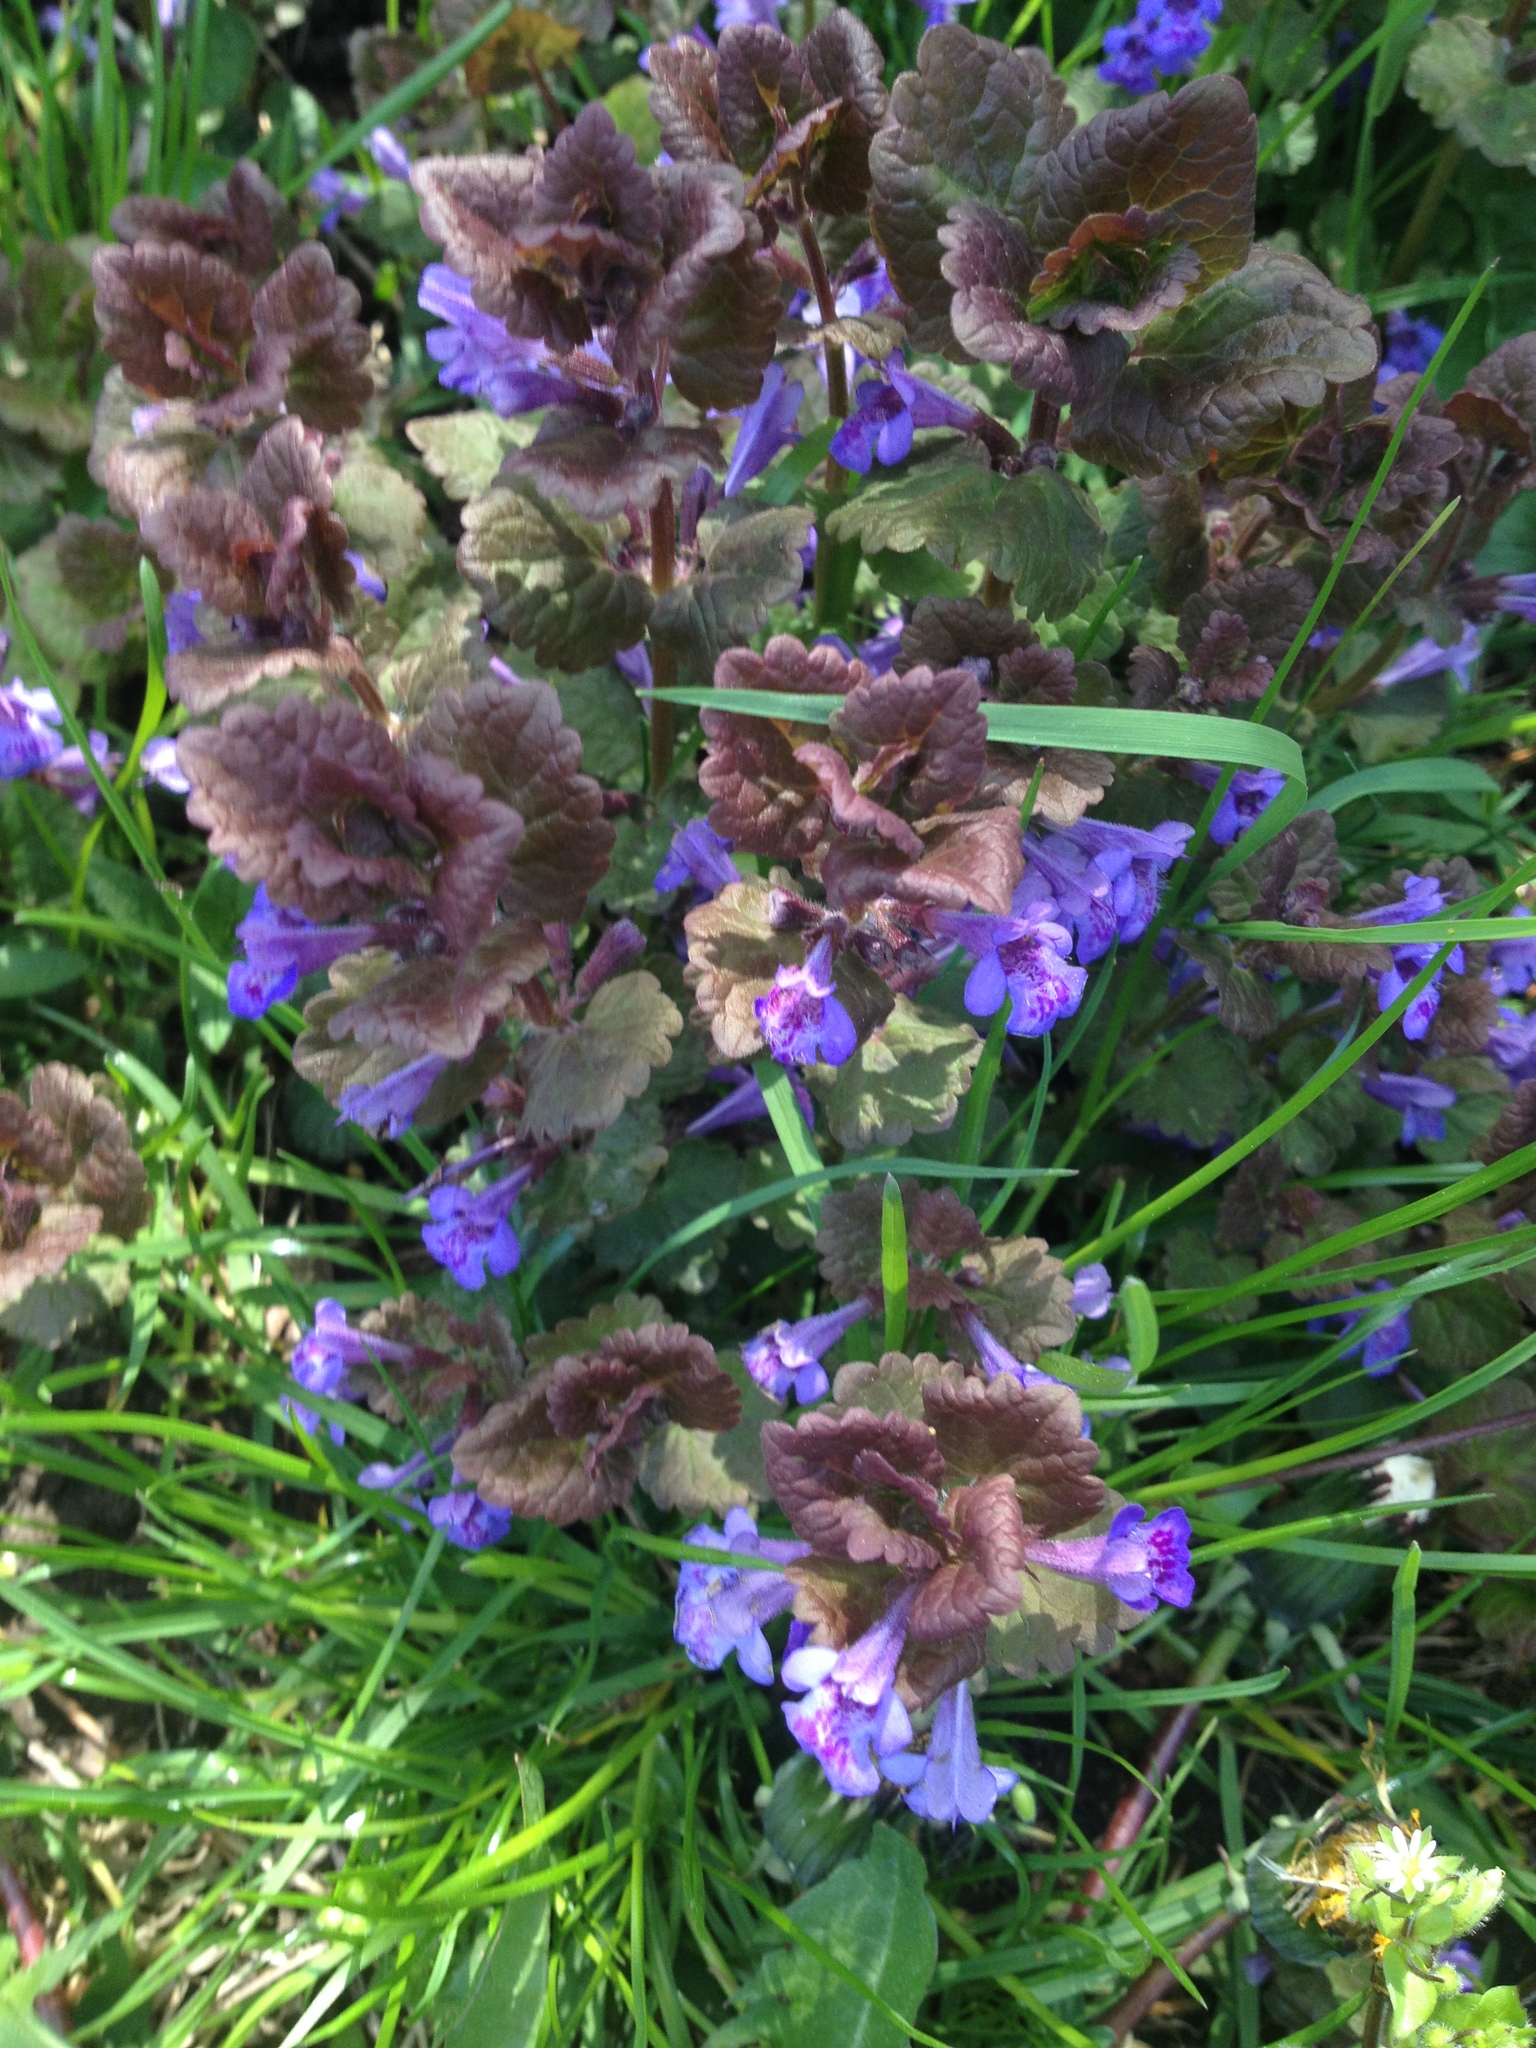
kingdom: Plantae
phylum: Tracheophyta
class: Magnoliopsida
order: Lamiales
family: Lamiaceae
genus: Glechoma
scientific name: Glechoma hederacea
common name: Ground ivy
